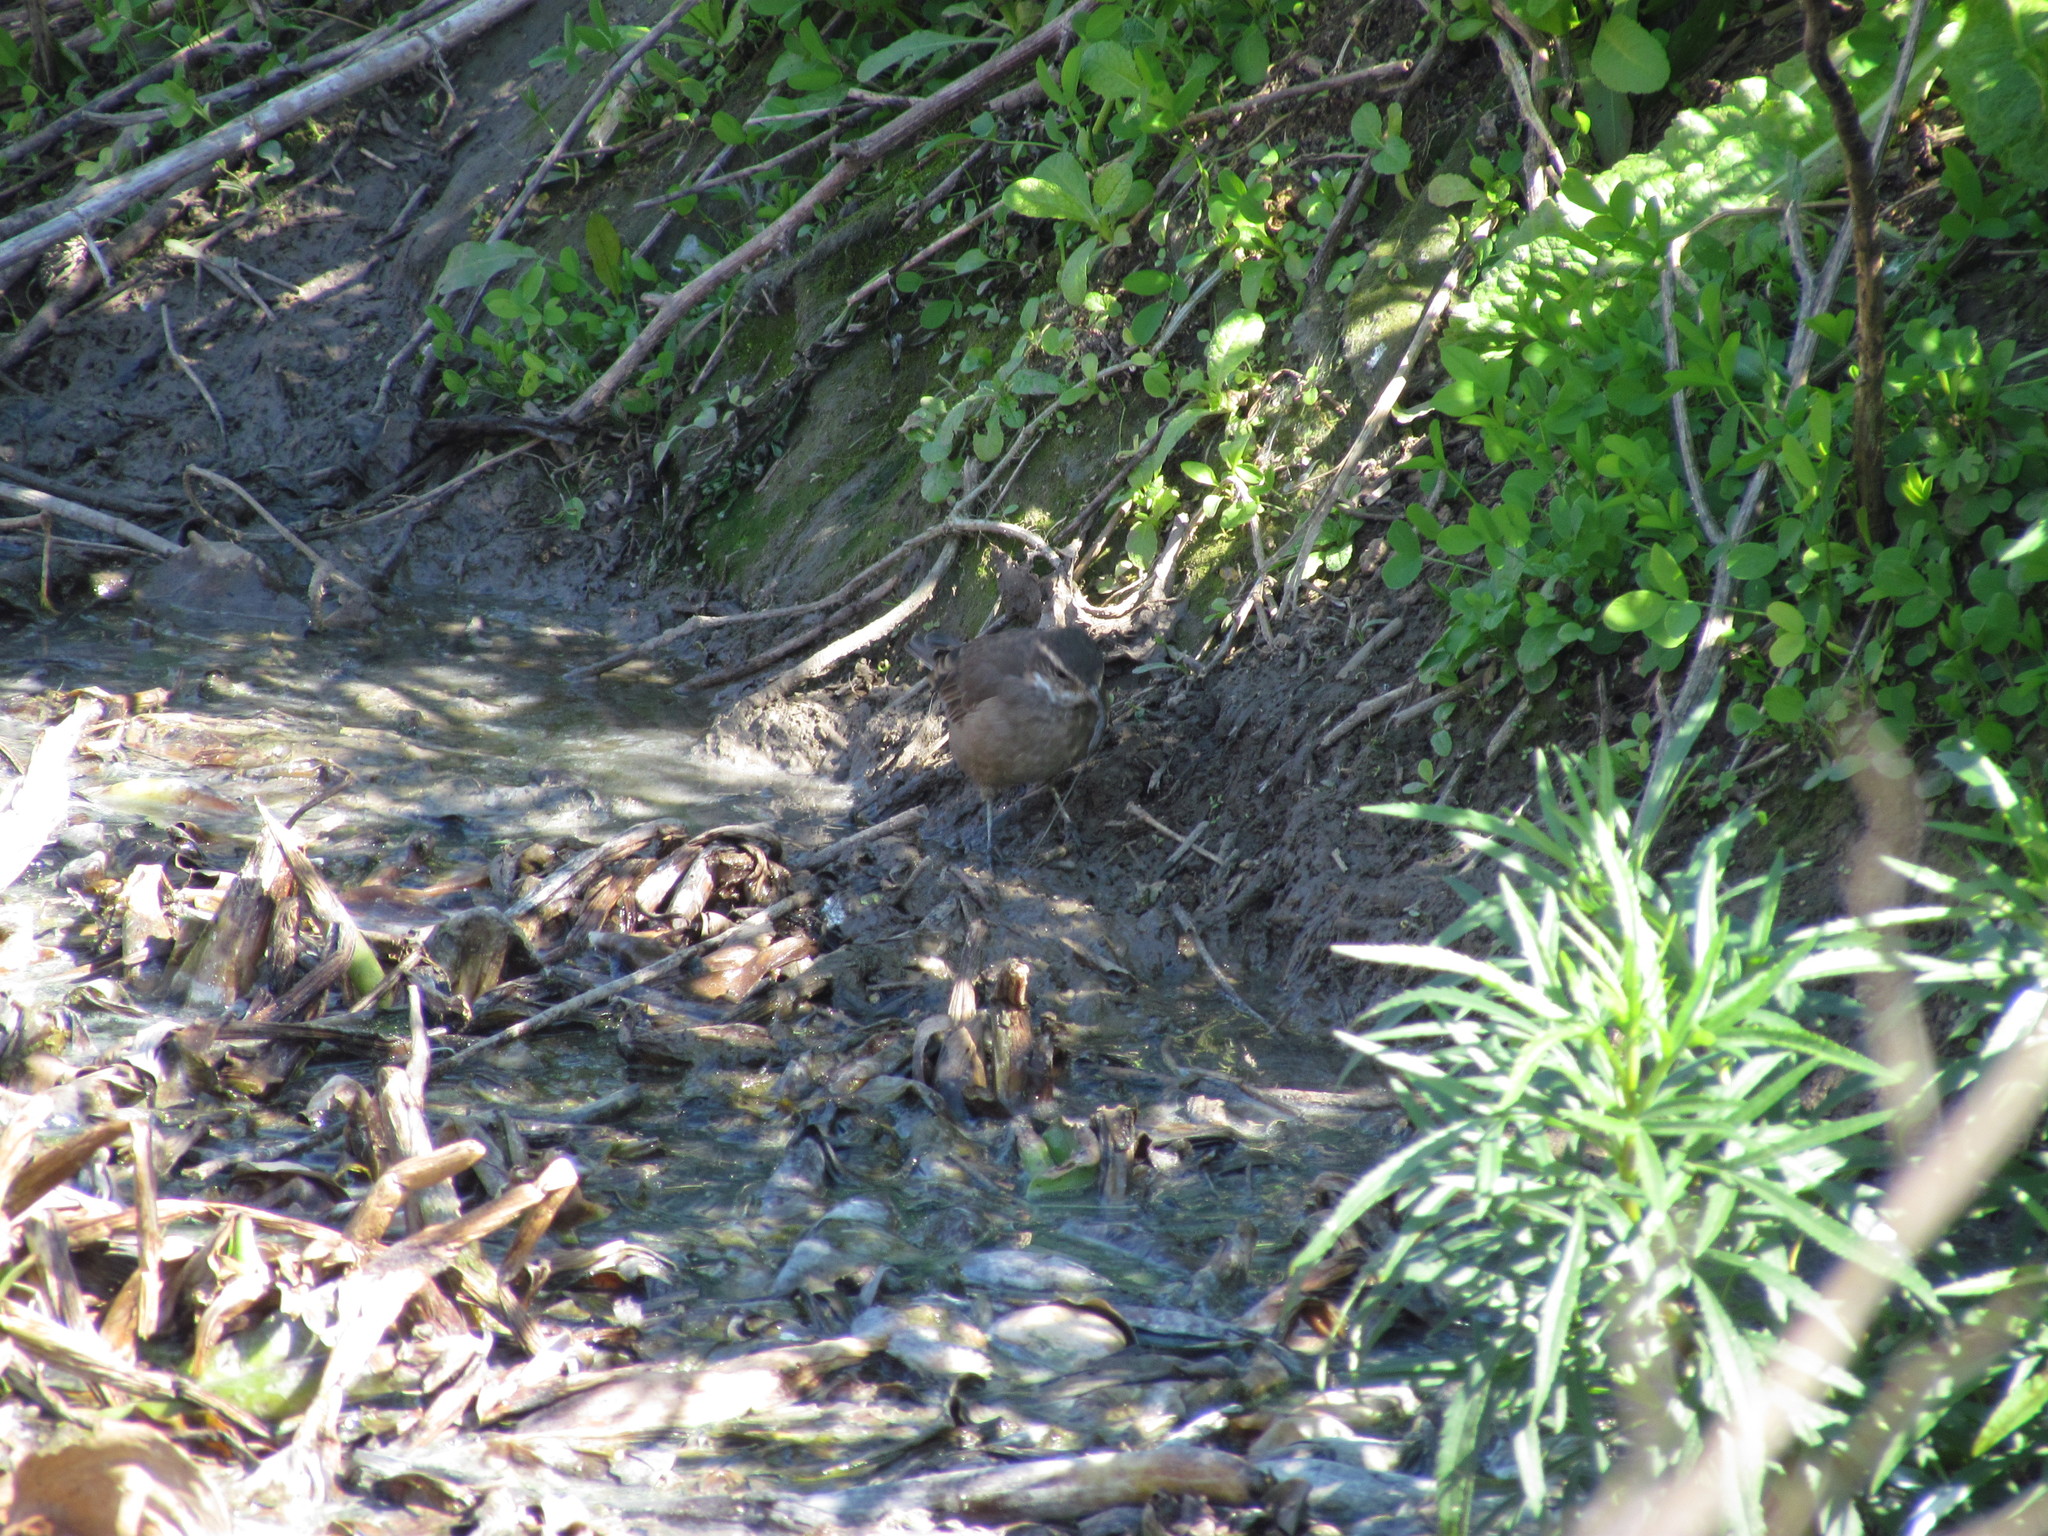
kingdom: Animalia
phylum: Chordata
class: Aves
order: Passeriformes
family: Furnariidae
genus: Cinclodes
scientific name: Cinclodes fuscus
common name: Buff-winged cinclodes
